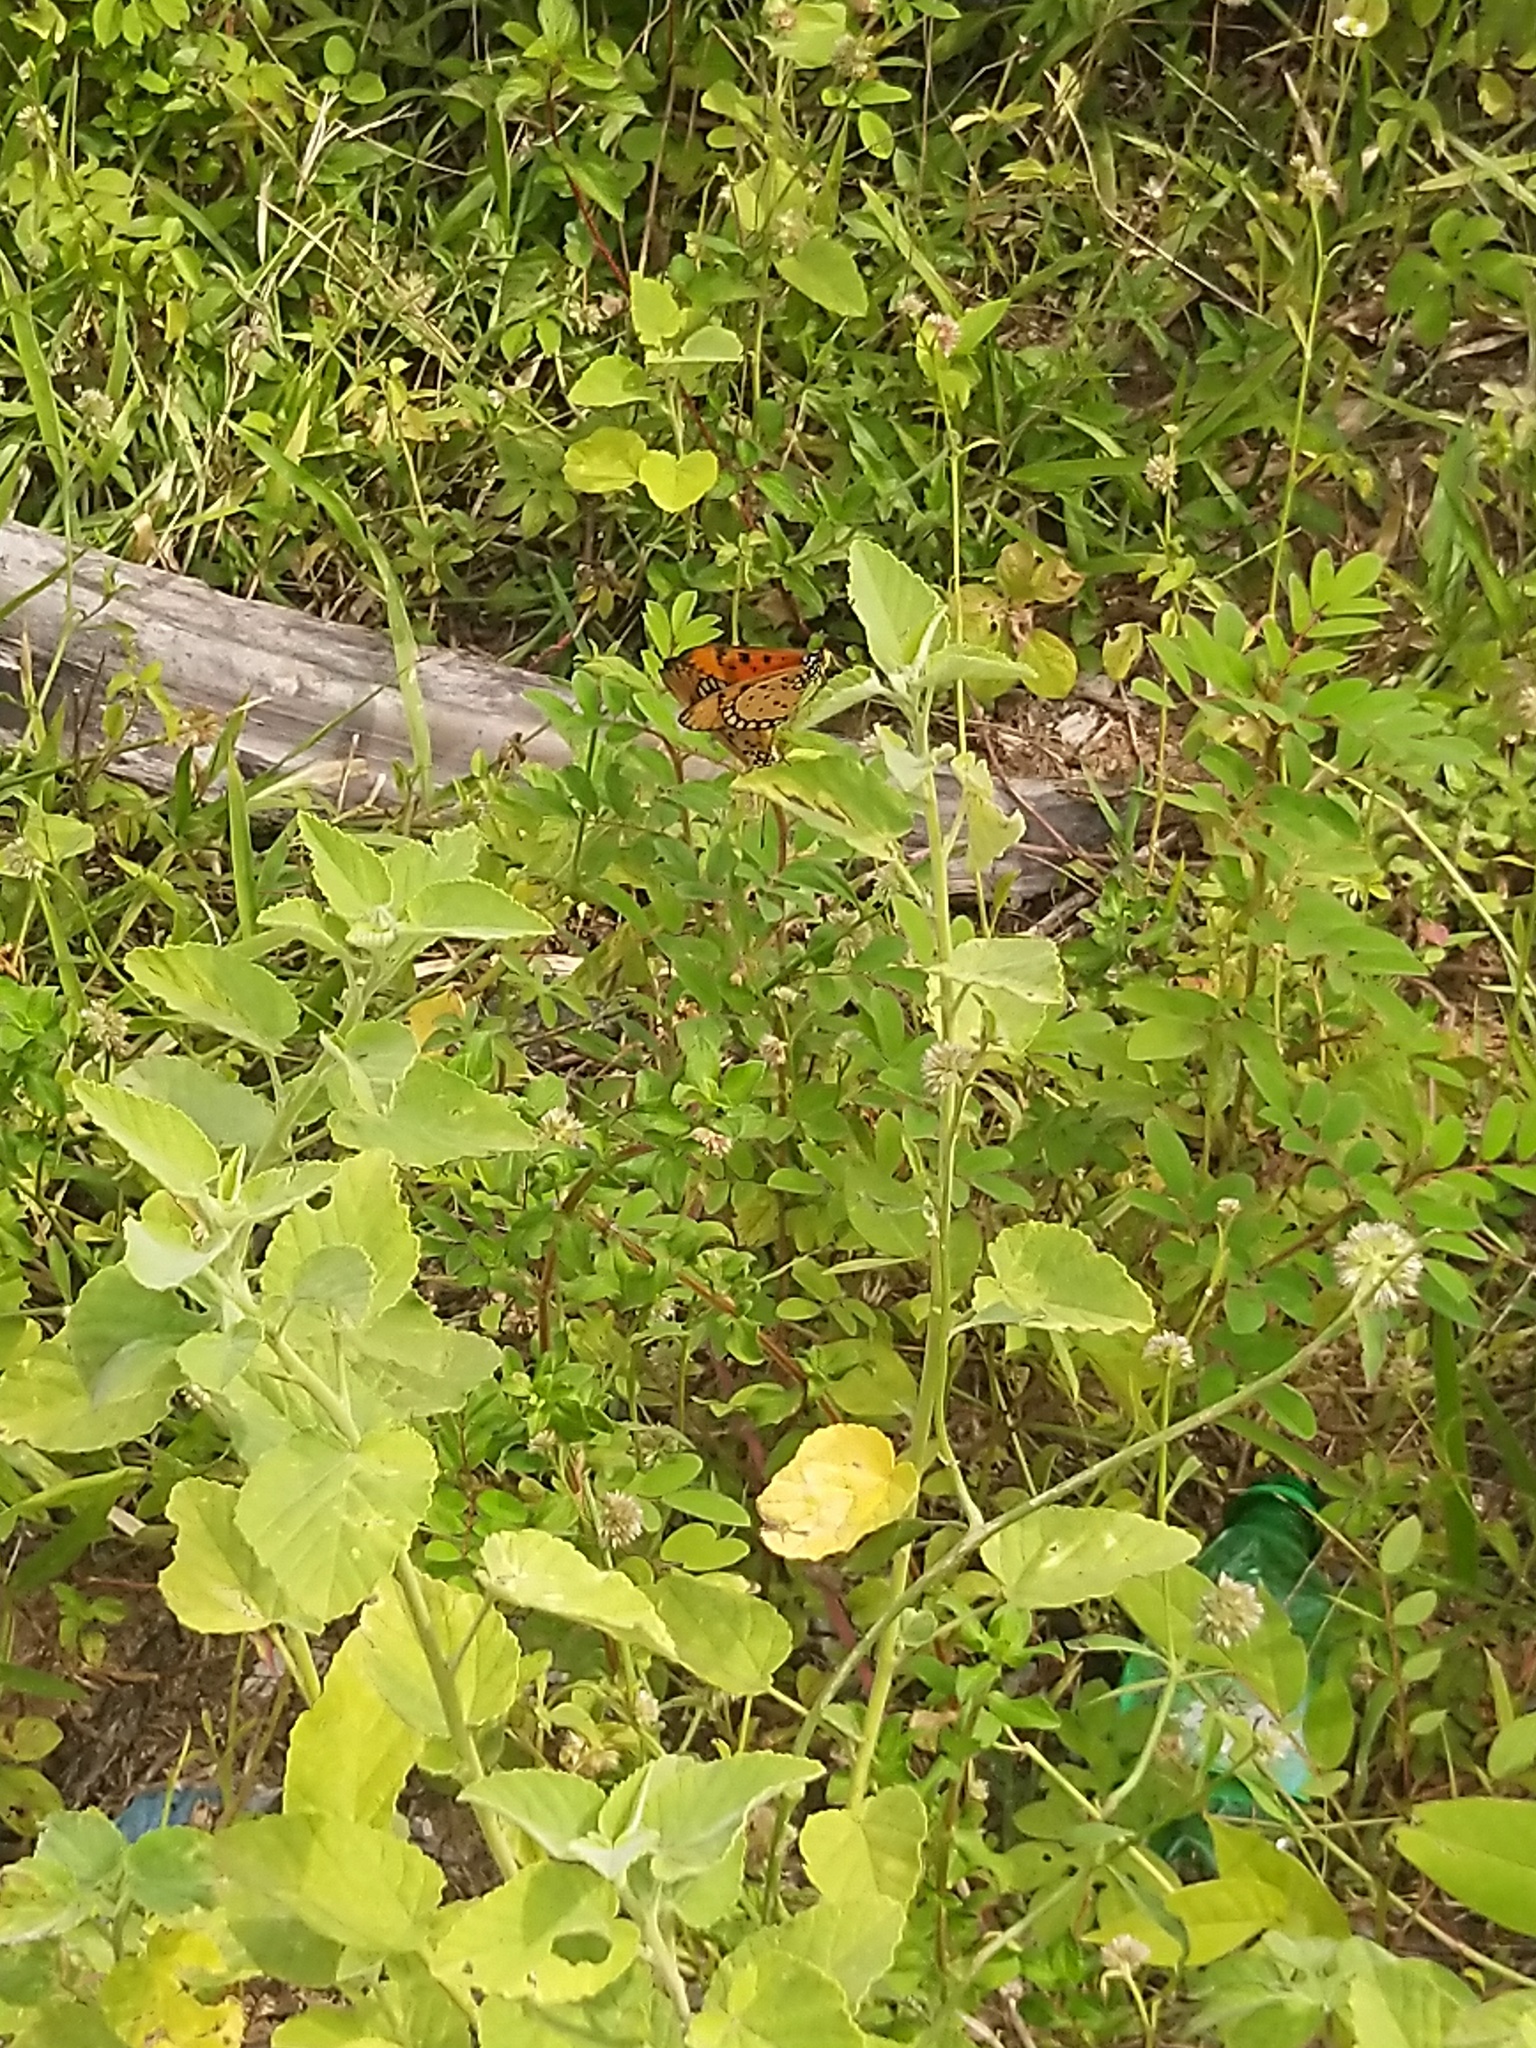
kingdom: Animalia
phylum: Arthropoda
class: Insecta
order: Lepidoptera
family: Nymphalidae
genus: Acraea
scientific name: Acraea terpsicore
